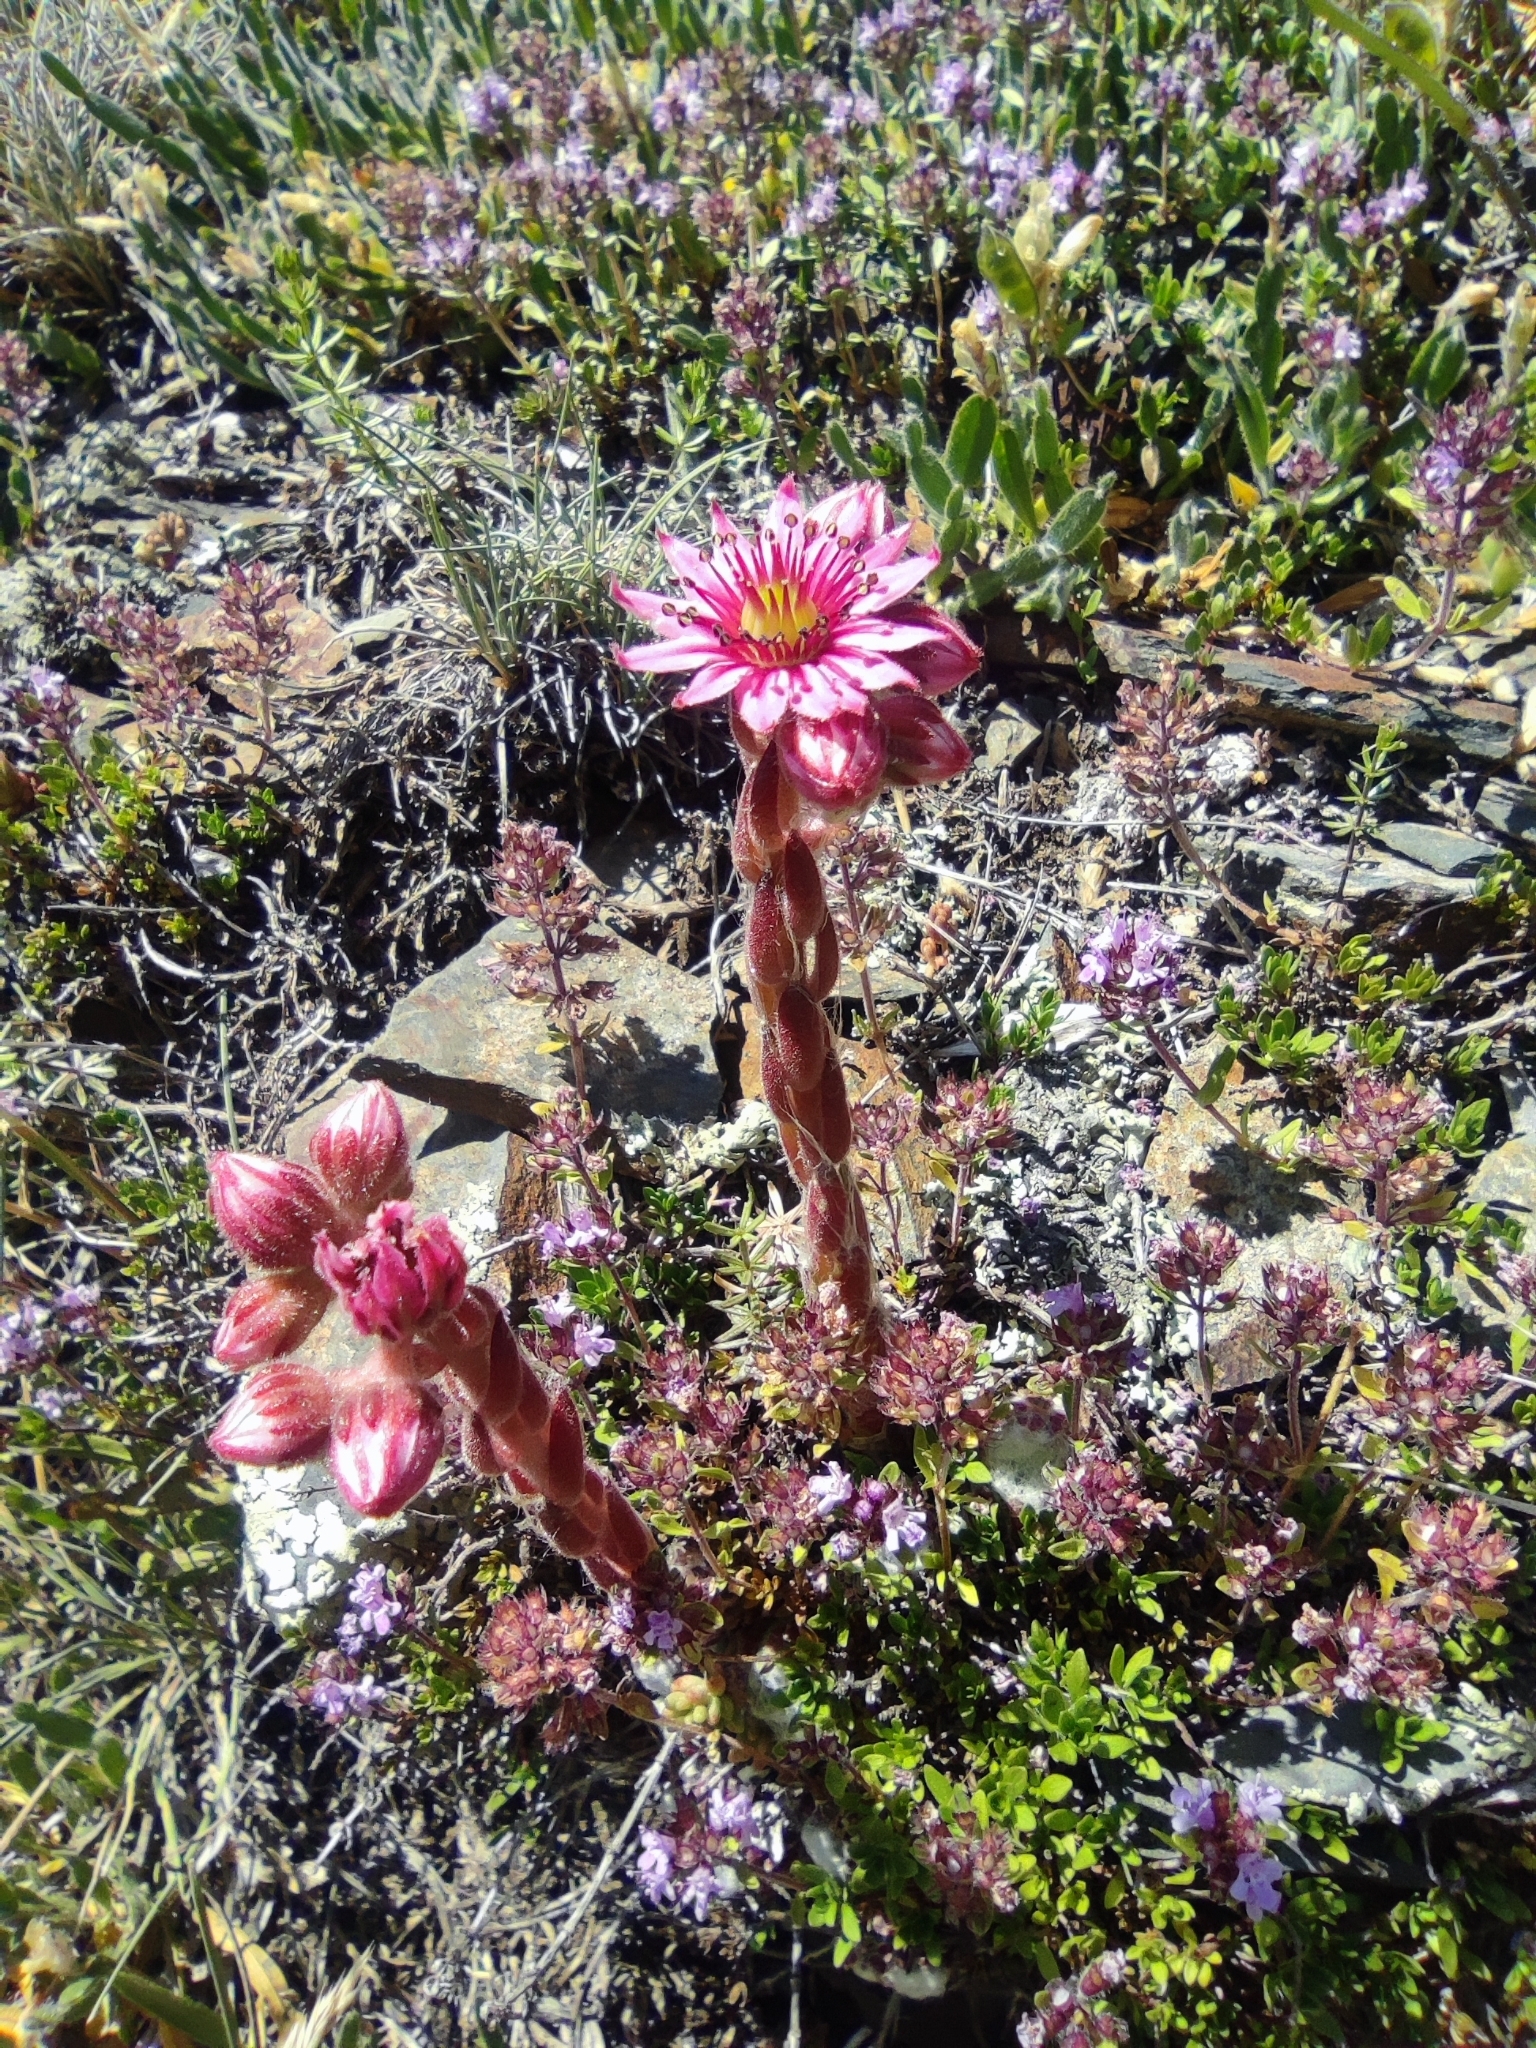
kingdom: Plantae
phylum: Tracheophyta
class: Magnoliopsida
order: Saxifragales
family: Crassulaceae
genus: Sempervivum
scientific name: Sempervivum arachnoideum
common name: Cobweb house-leek
